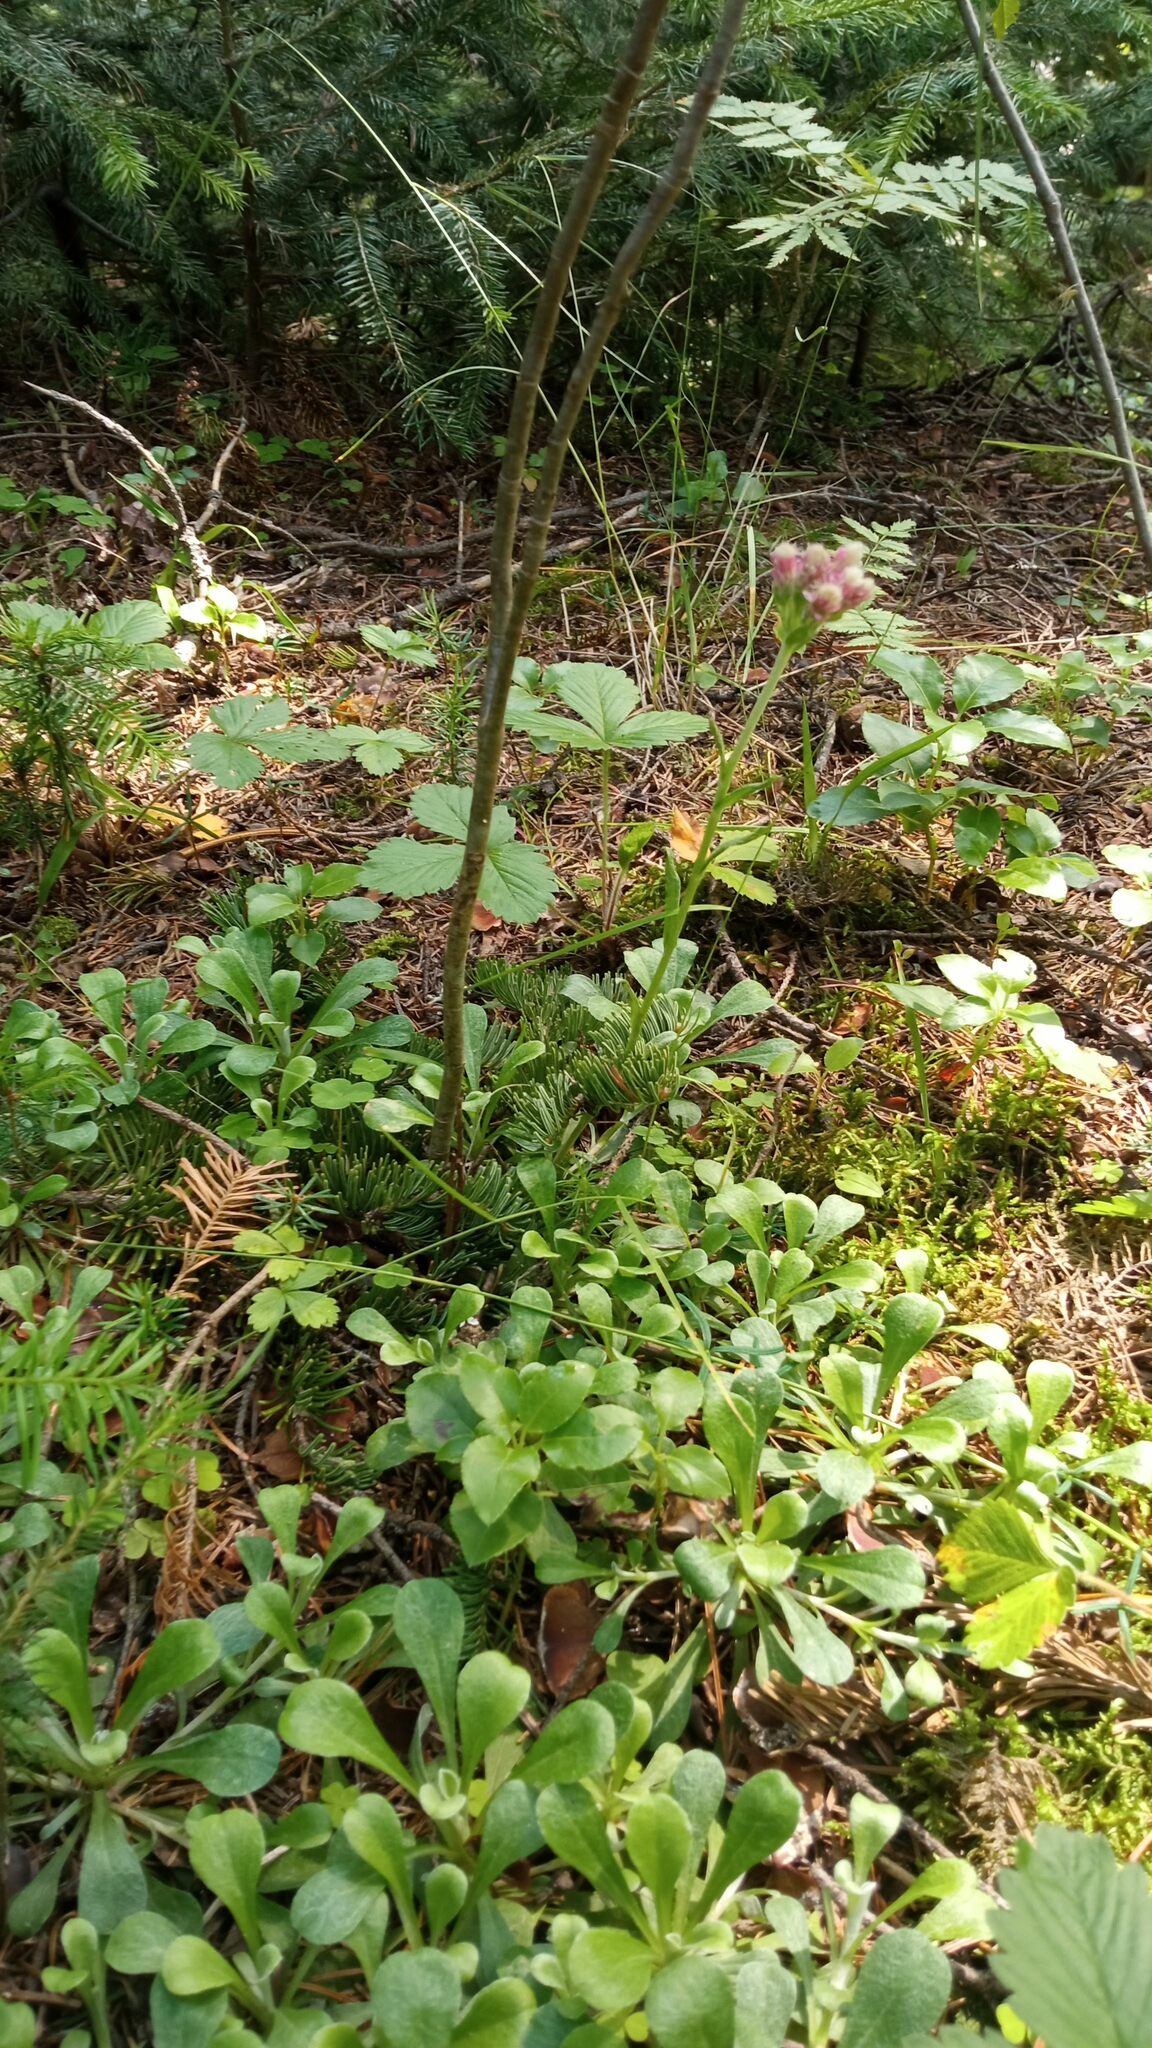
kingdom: Plantae
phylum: Tracheophyta
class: Magnoliopsida
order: Asterales
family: Asteraceae
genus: Antennaria
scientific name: Antennaria dioica
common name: Mountain everlasting
